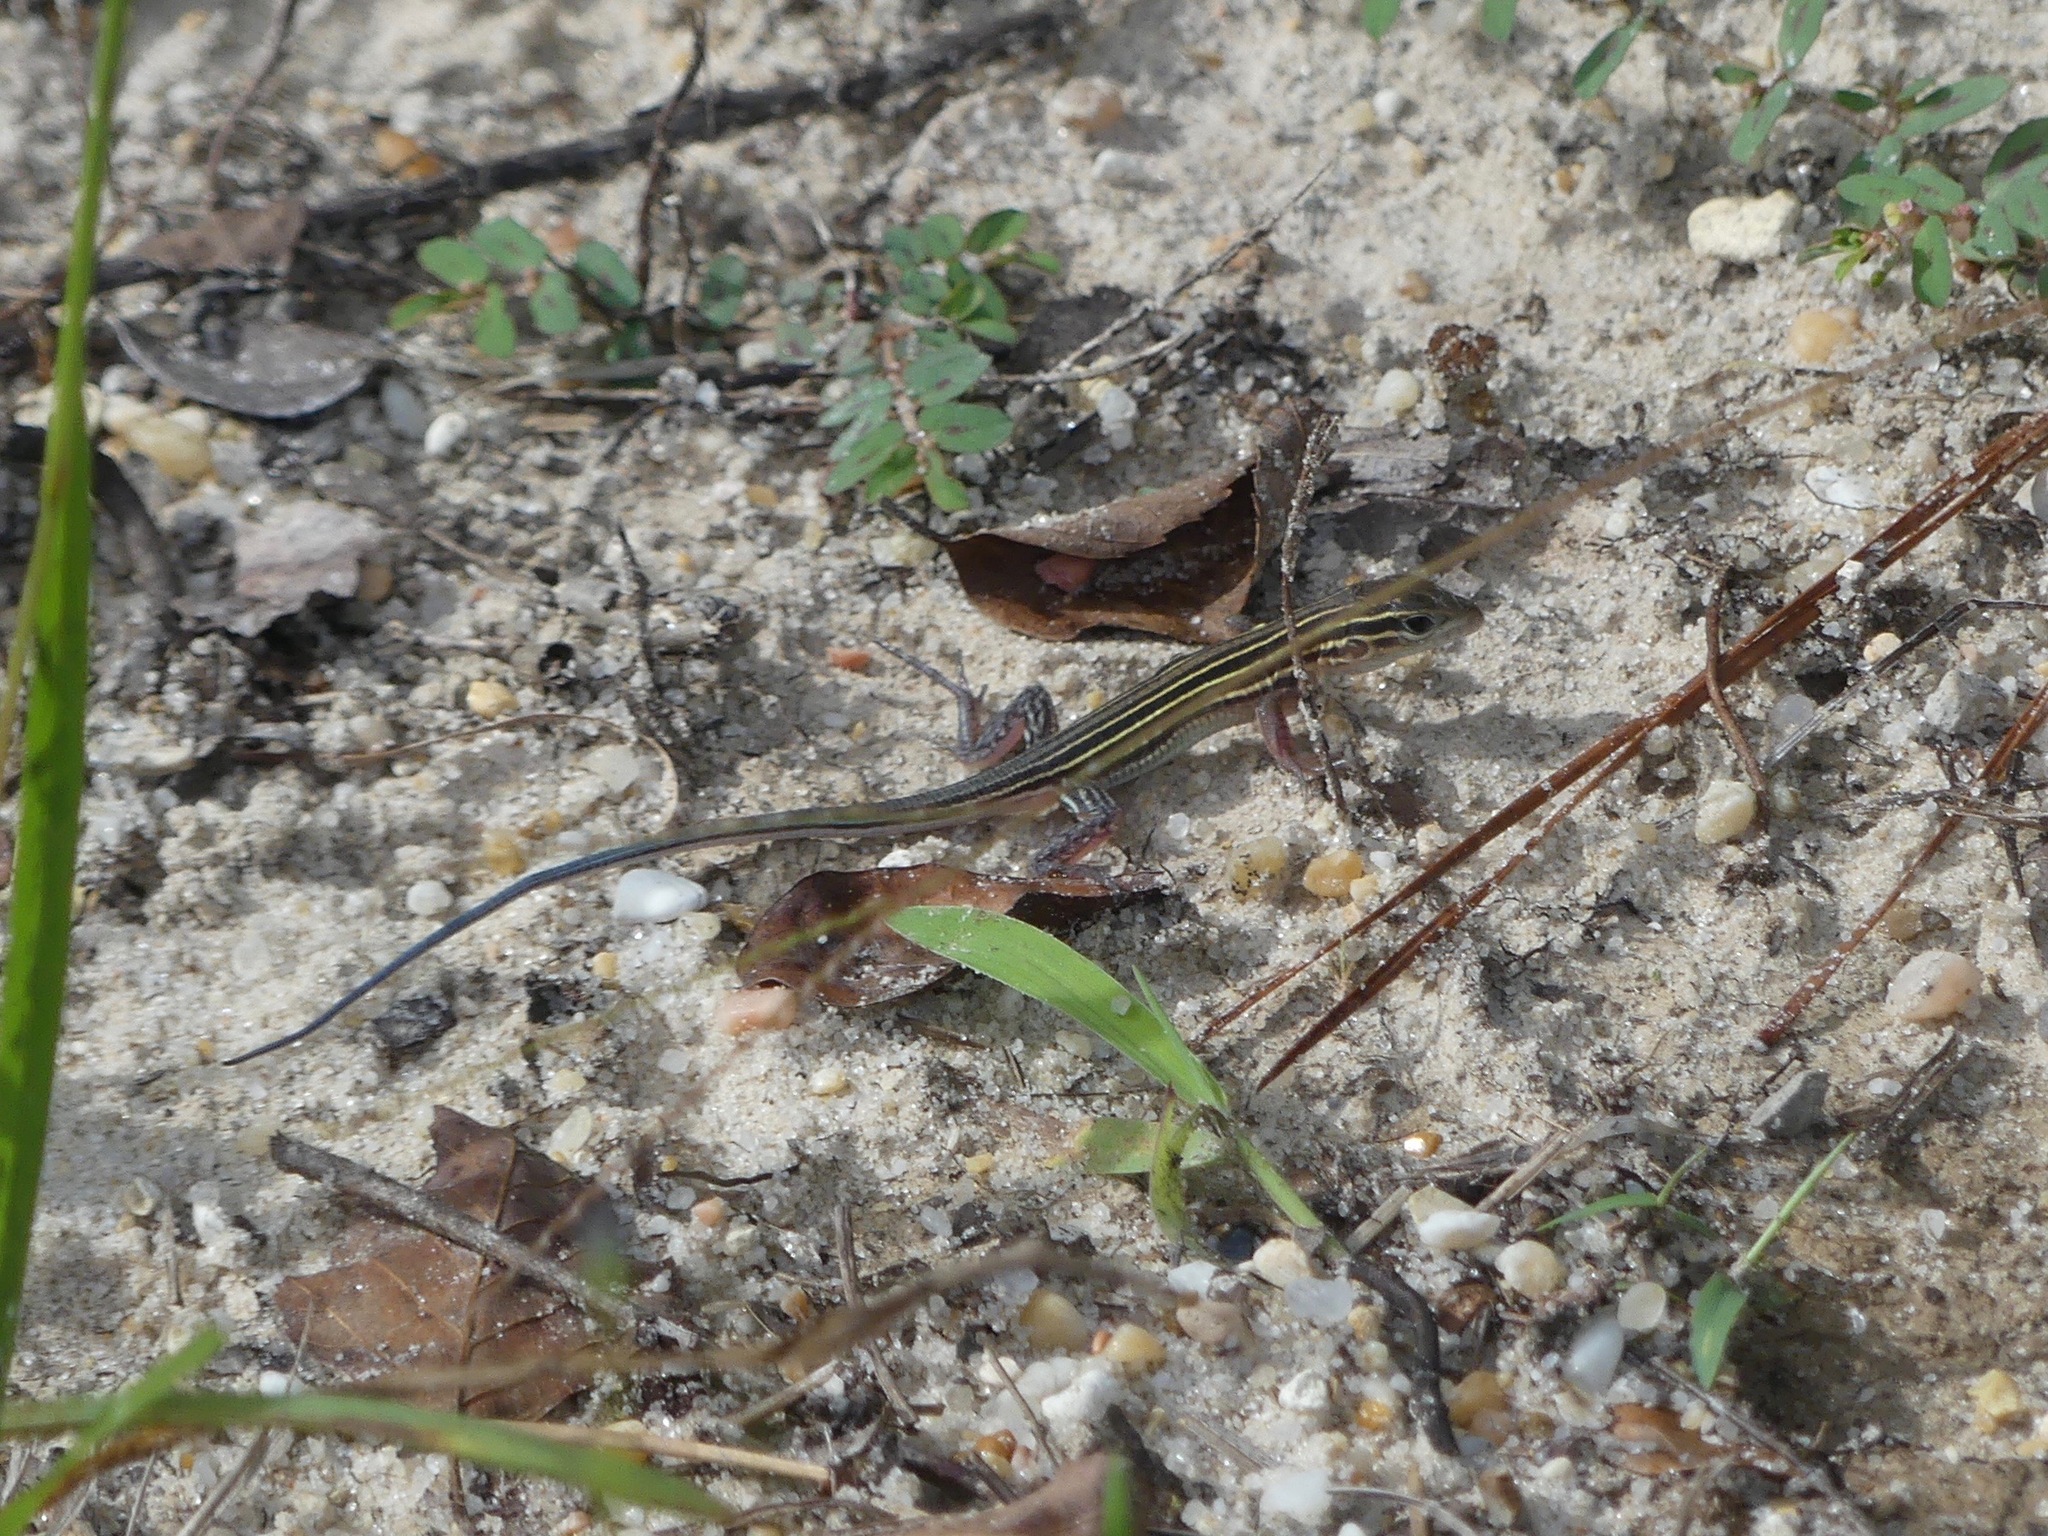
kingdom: Animalia
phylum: Chordata
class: Squamata
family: Teiidae
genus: Aspidoscelis
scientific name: Aspidoscelis sexlineatus
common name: Six-lined racerunner
